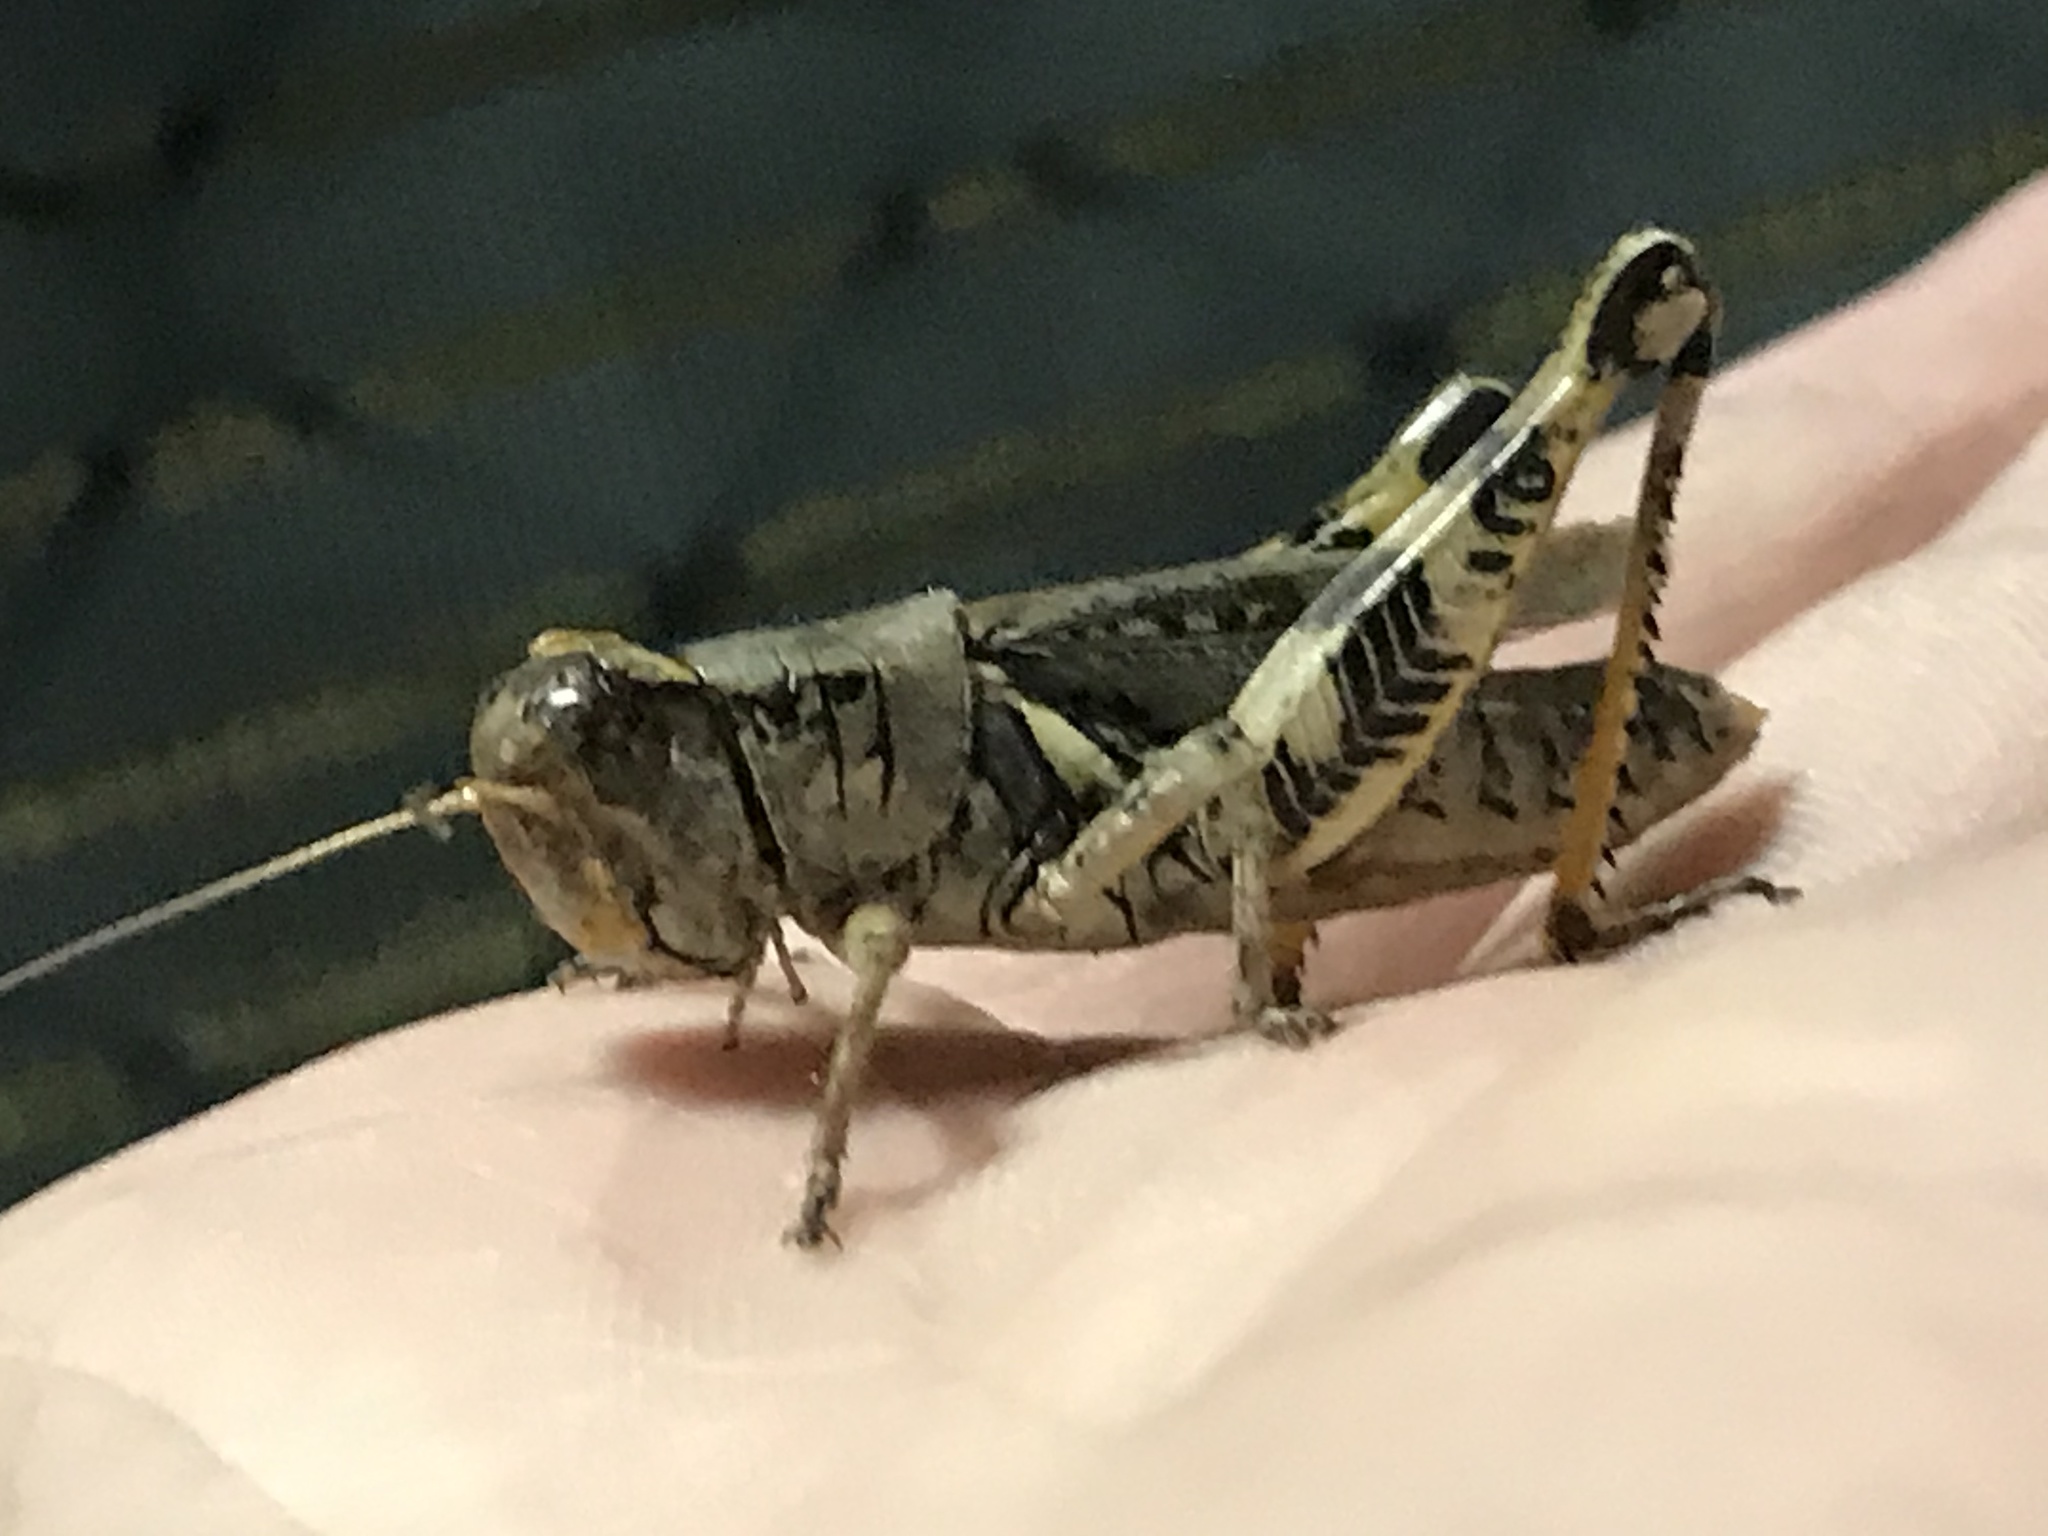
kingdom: Animalia
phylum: Arthropoda
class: Insecta
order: Orthoptera
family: Acrididae
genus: Melanoplus
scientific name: Melanoplus ponderosus
